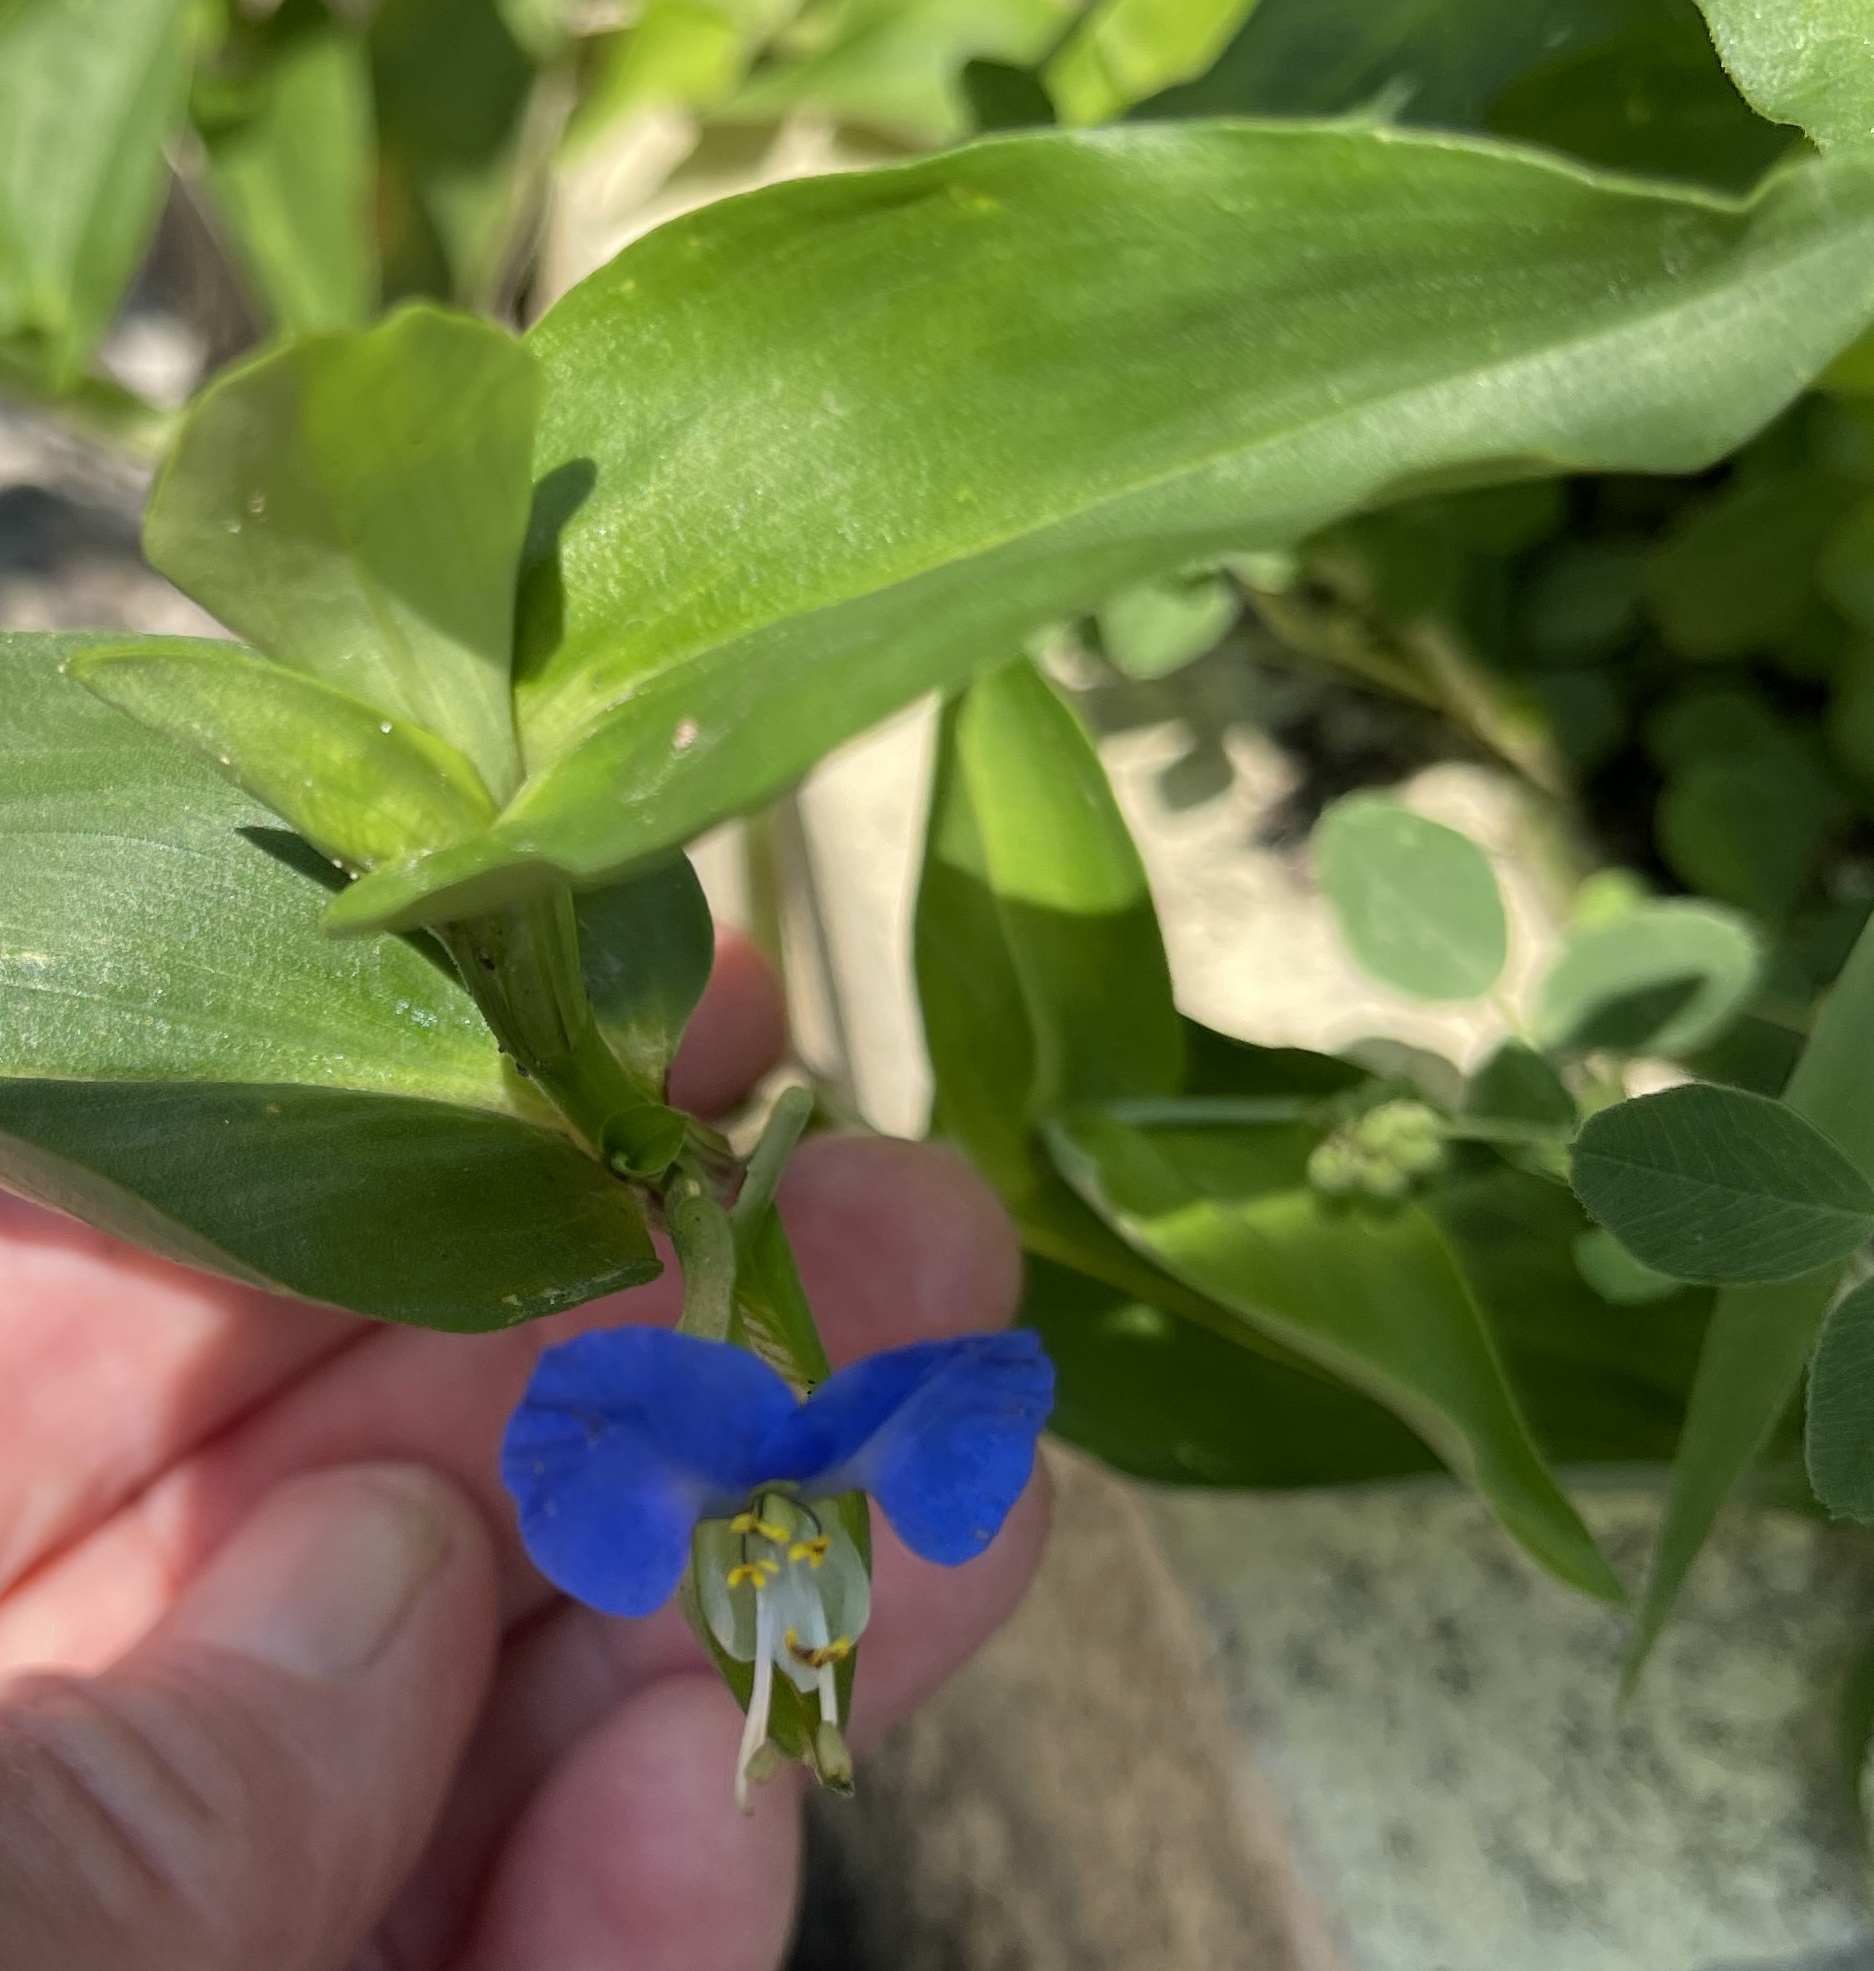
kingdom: Plantae
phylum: Tracheophyta
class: Liliopsida
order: Commelinales
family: Commelinaceae
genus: Commelina
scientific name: Commelina communis
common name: Asiatic dayflower
